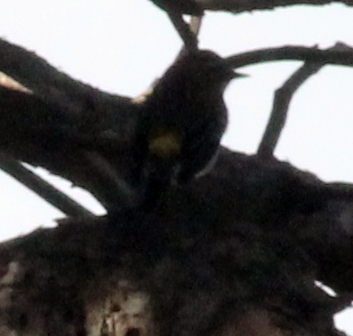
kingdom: Animalia
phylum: Chordata
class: Aves
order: Passeriformes
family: Parulidae
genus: Setophaga
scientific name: Setophaga coronata
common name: Myrtle warbler
